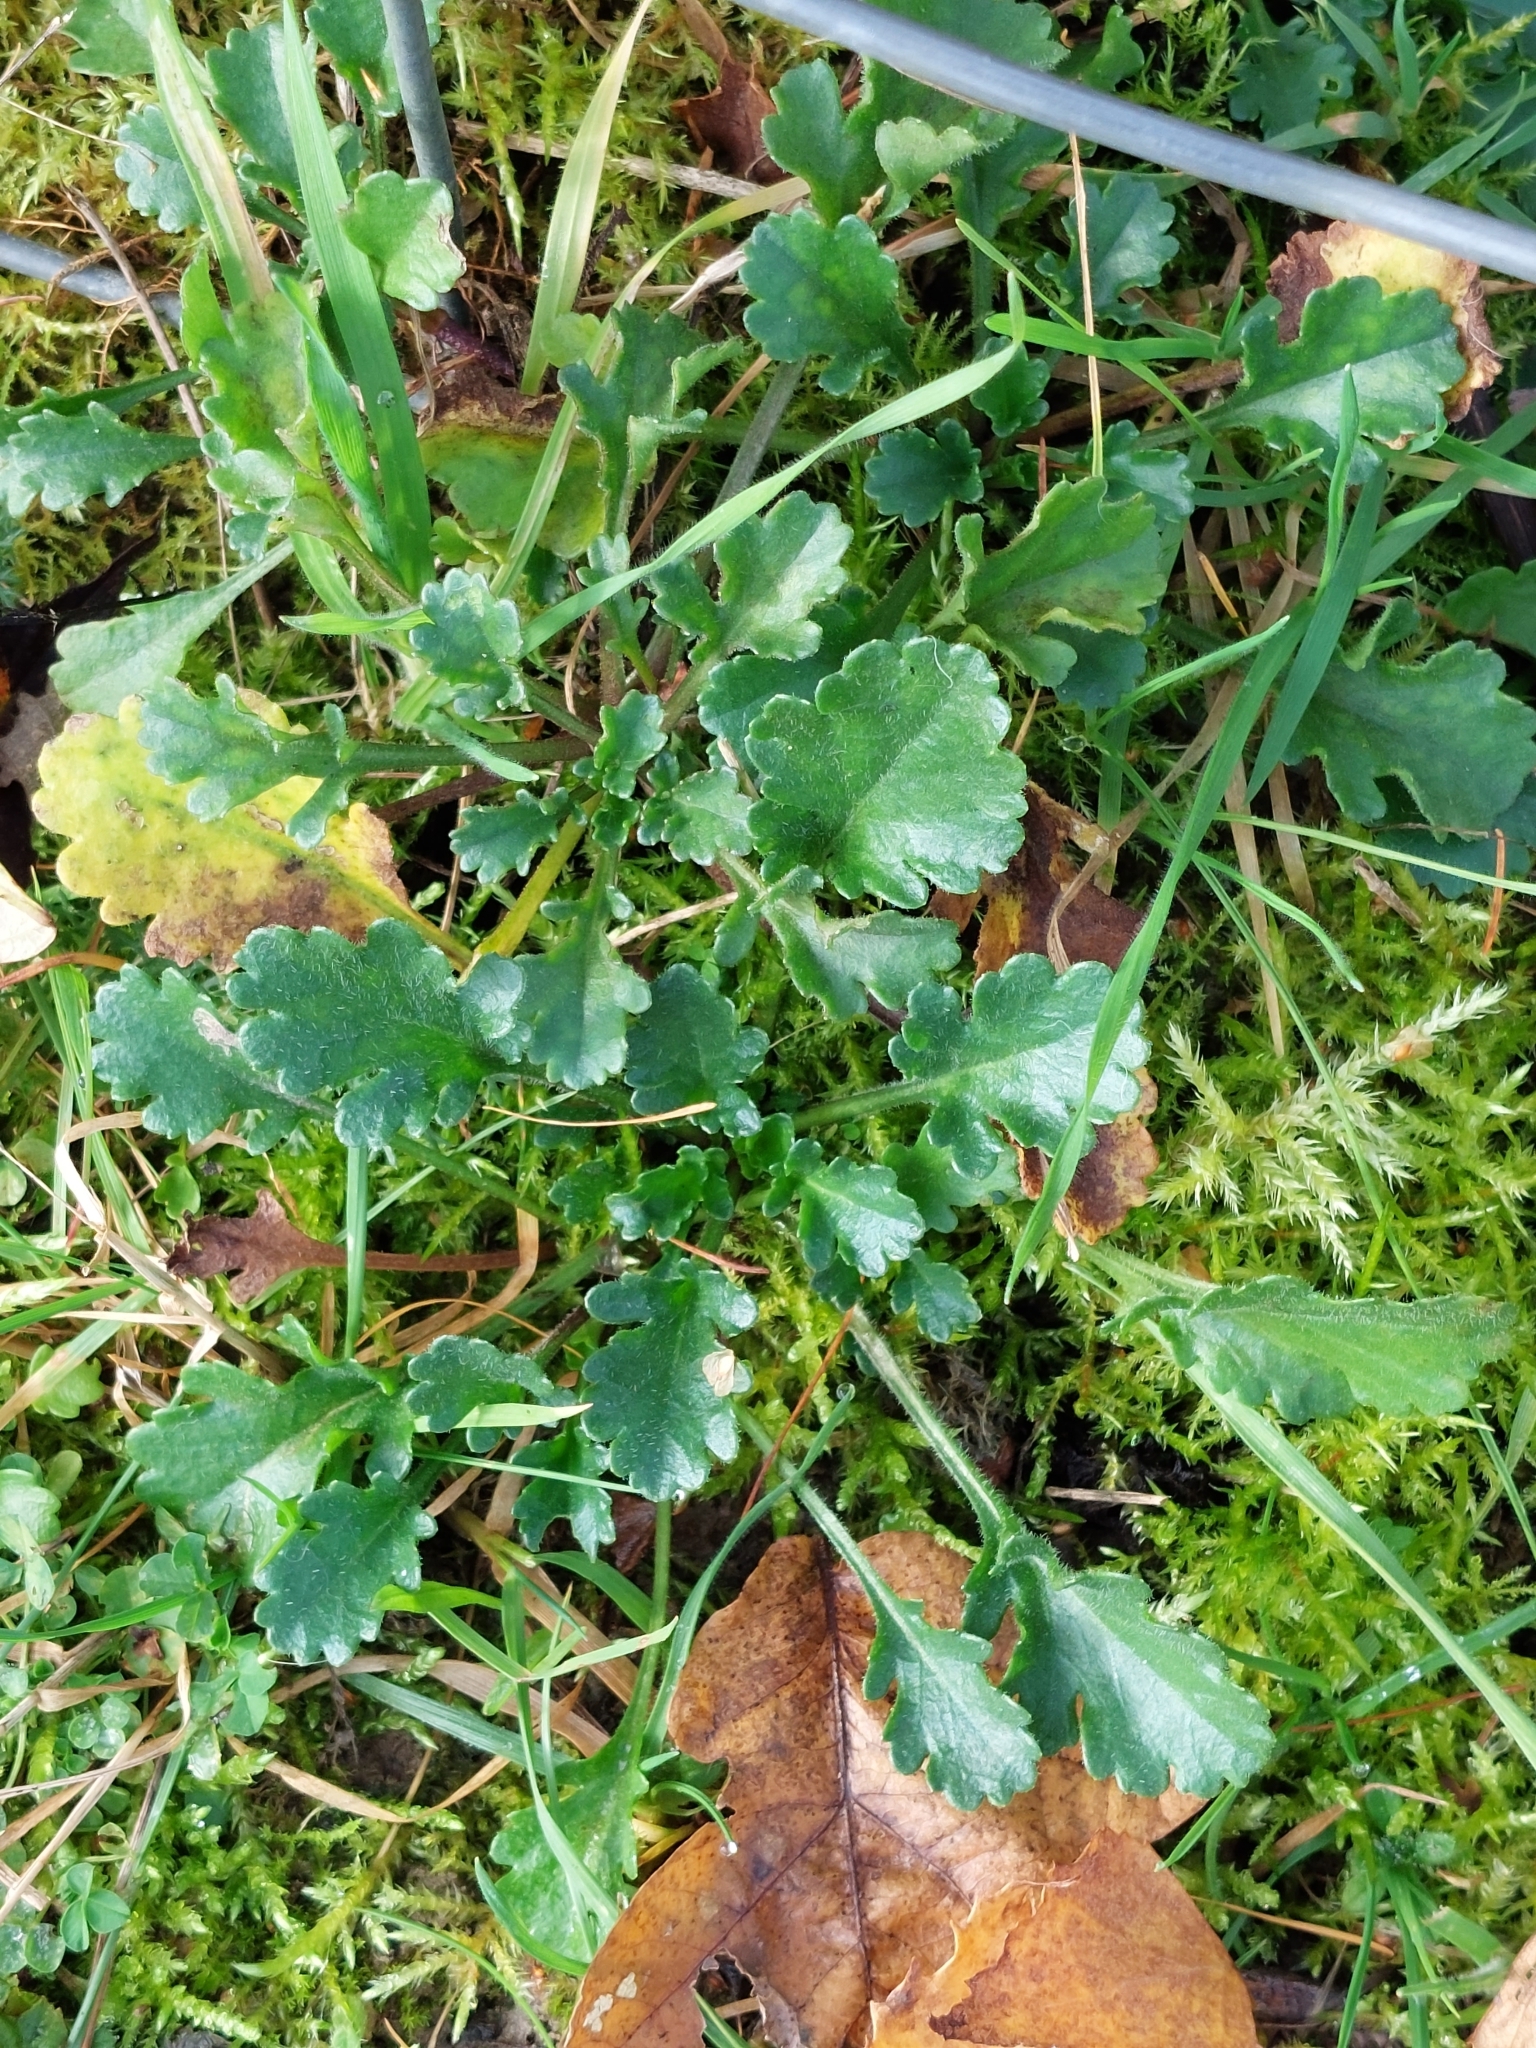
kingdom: Plantae
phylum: Tracheophyta
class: Magnoliopsida
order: Asterales
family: Asteraceae
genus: Leucanthemum
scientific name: Leucanthemum vulgare
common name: Oxeye daisy
